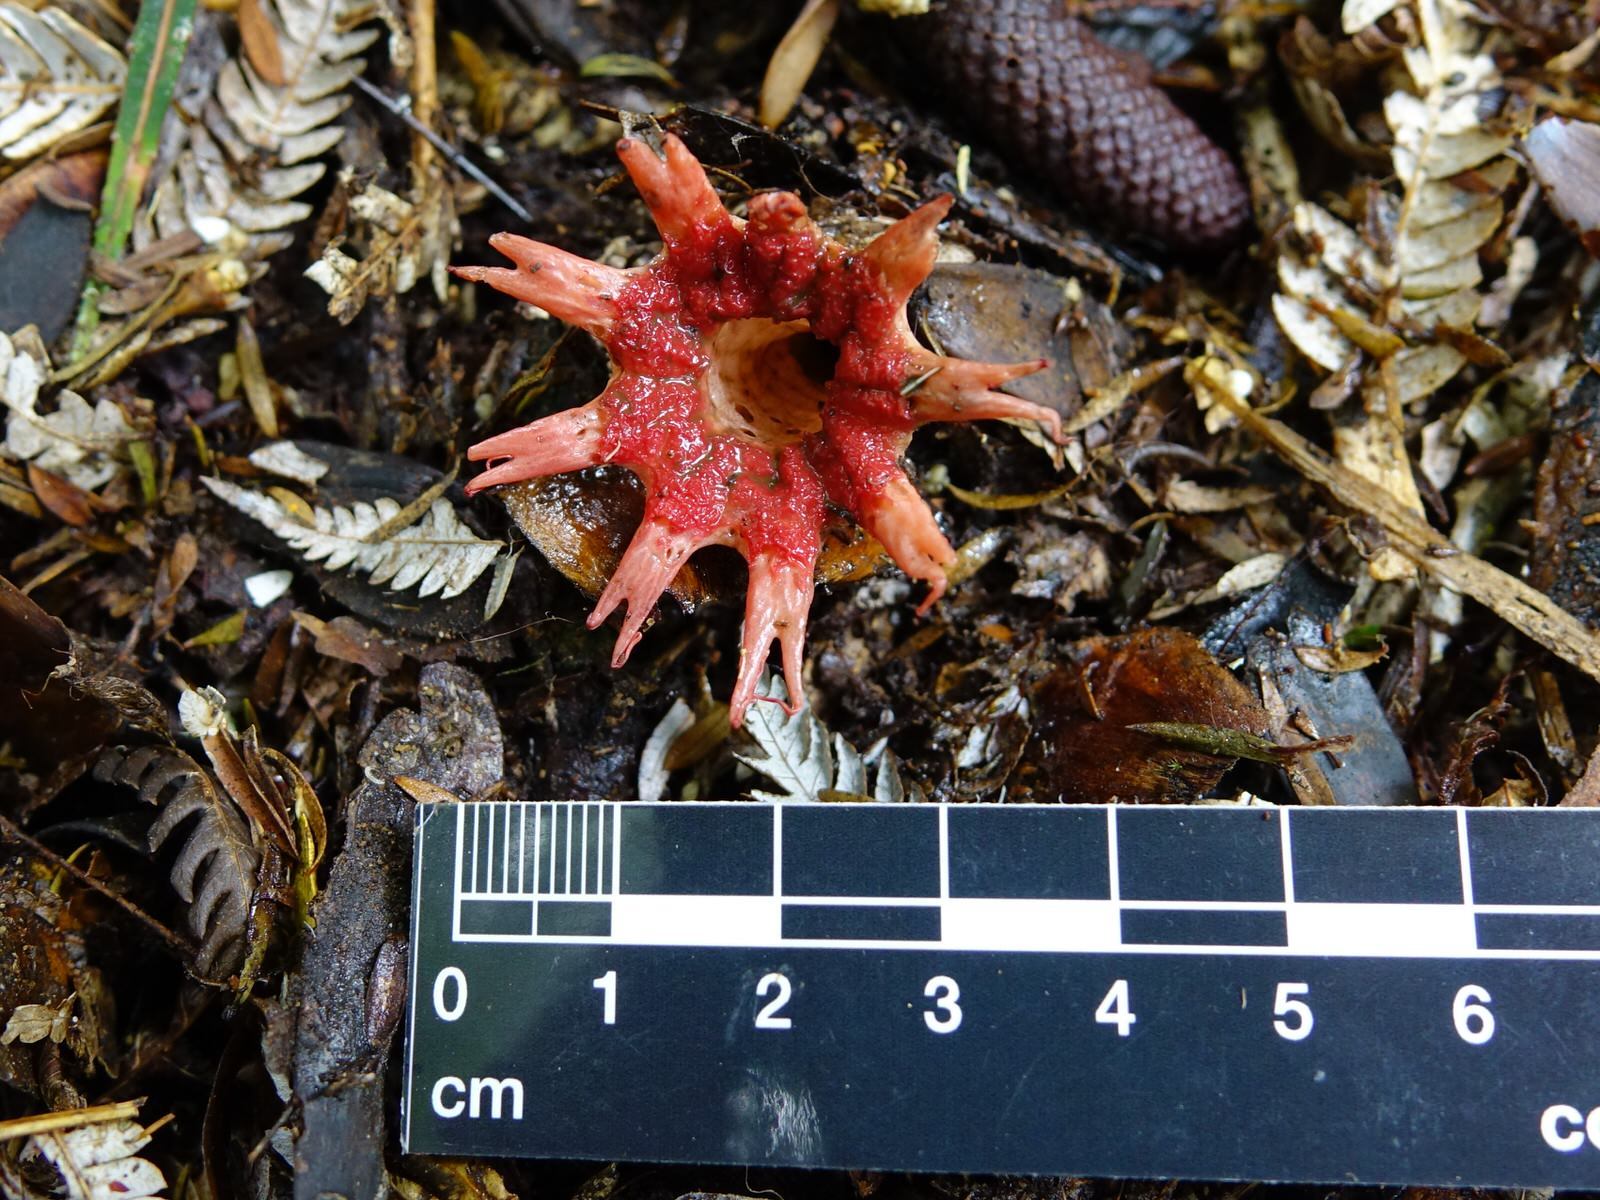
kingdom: Fungi
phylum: Basidiomycota
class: Agaricomycetes
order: Phallales
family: Phallaceae
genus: Aseroe
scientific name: Aseroe rubra
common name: Starfish fungus
